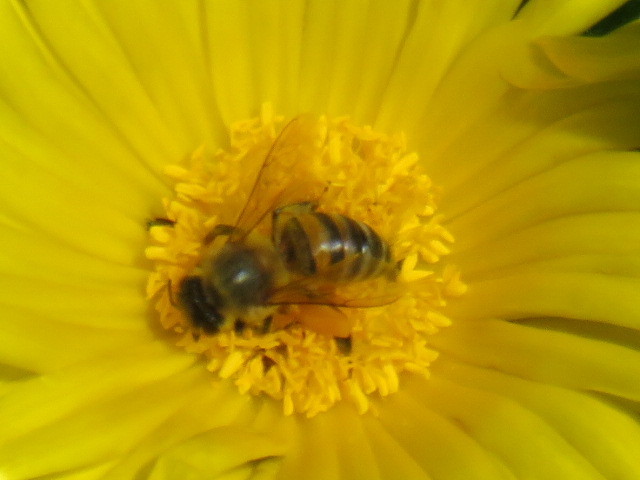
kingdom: Animalia
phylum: Arthropoda
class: Insecta
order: Hymenoptera
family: Apidae
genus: Apis
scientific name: Apis mellifera
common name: Honey bee
